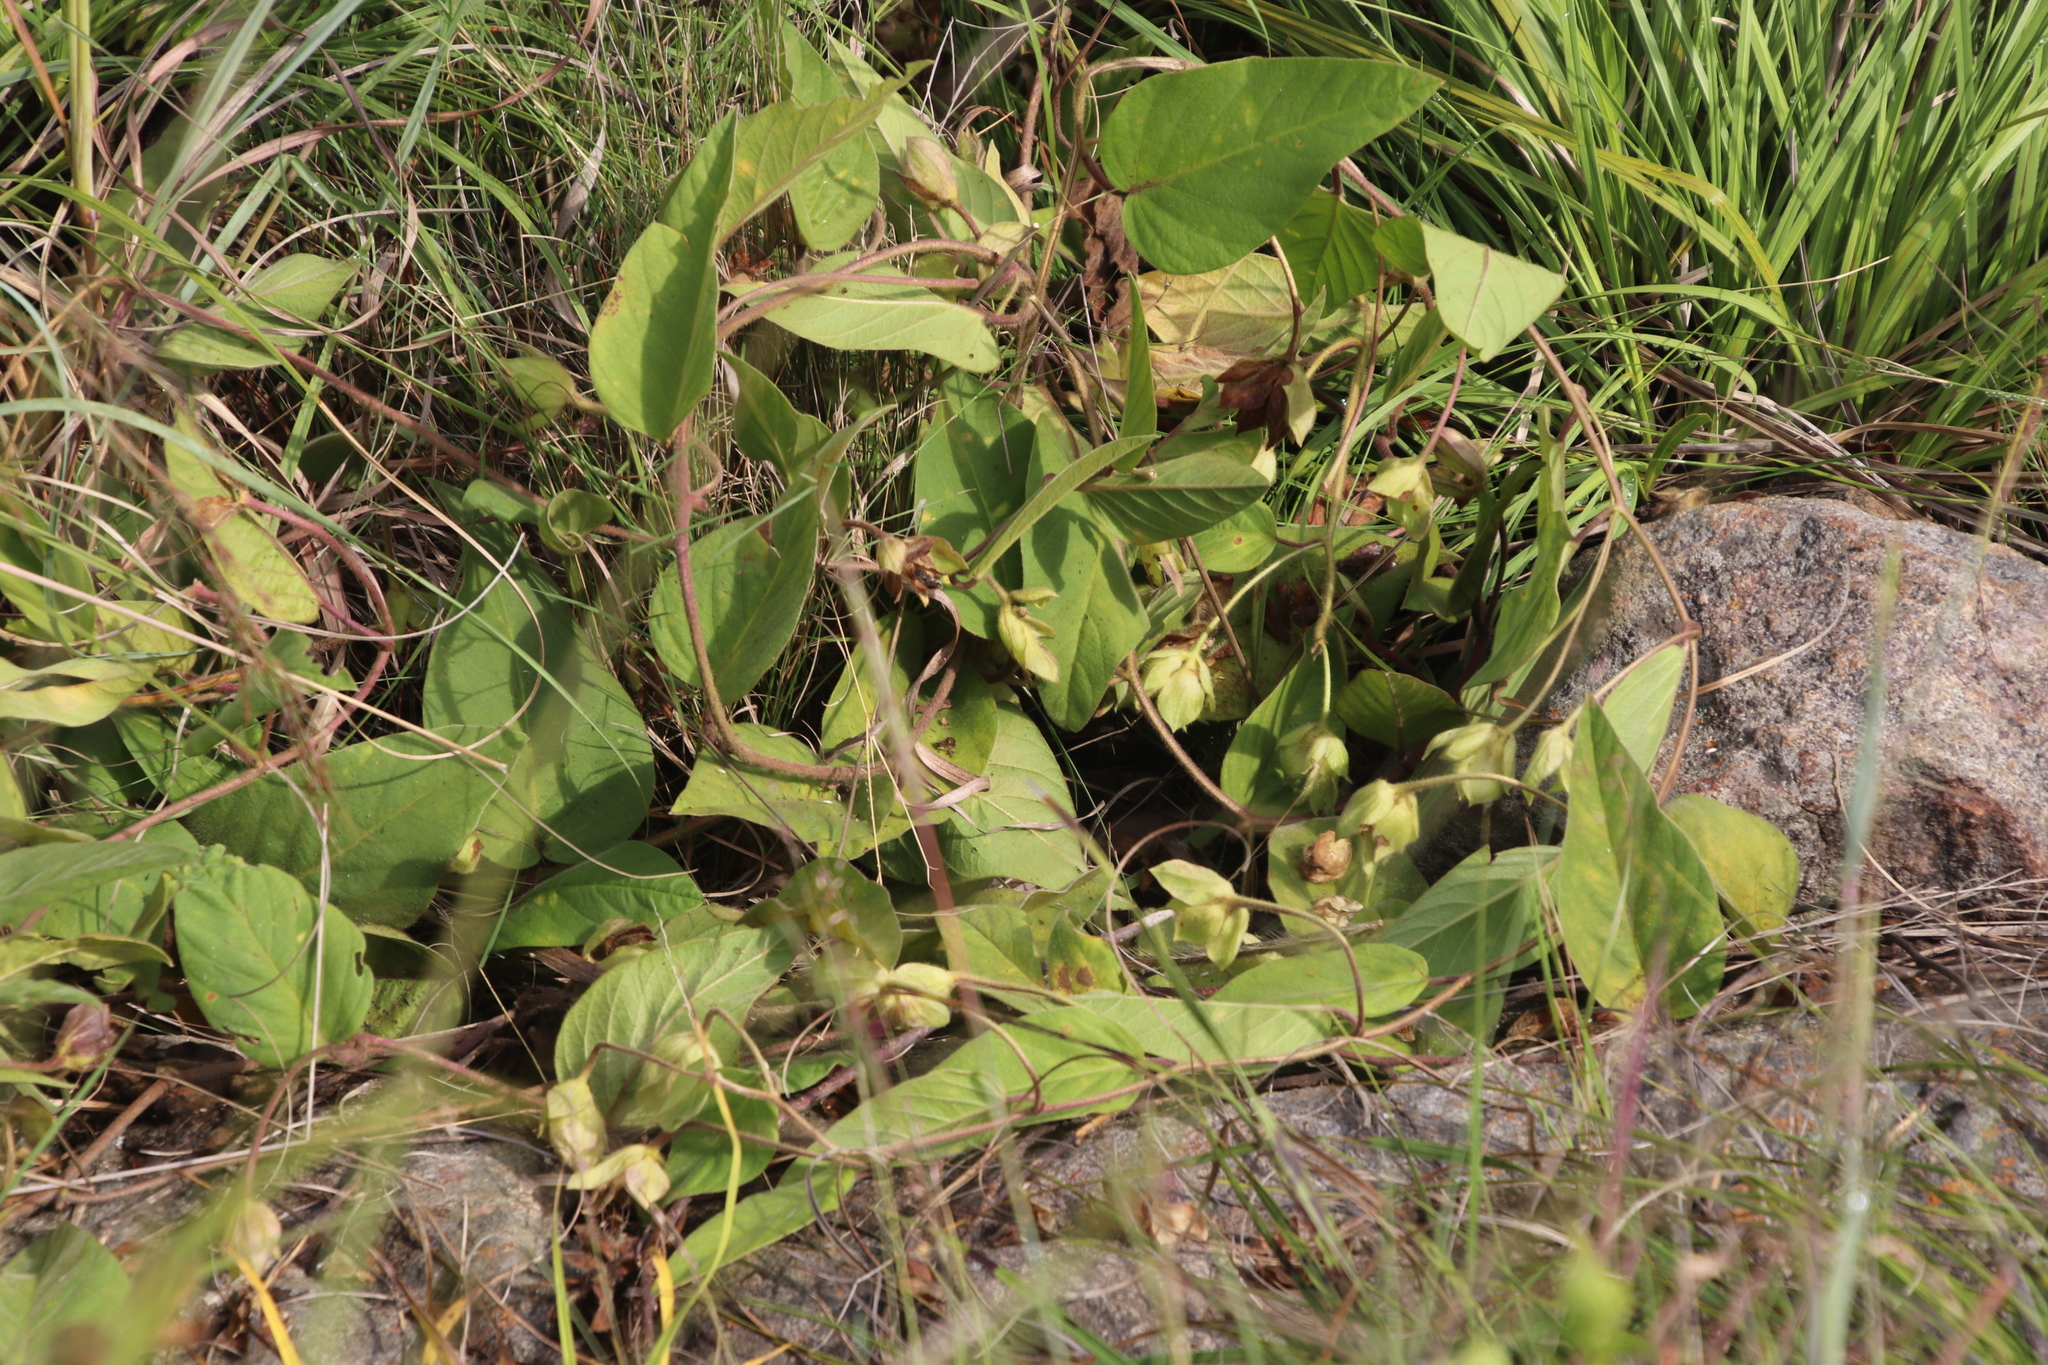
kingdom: Plantae
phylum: Tracheophyta
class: Magnoliopsida
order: Solanales
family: Convolvulaceae
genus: Ipomoea
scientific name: Ipomoea oblongata
